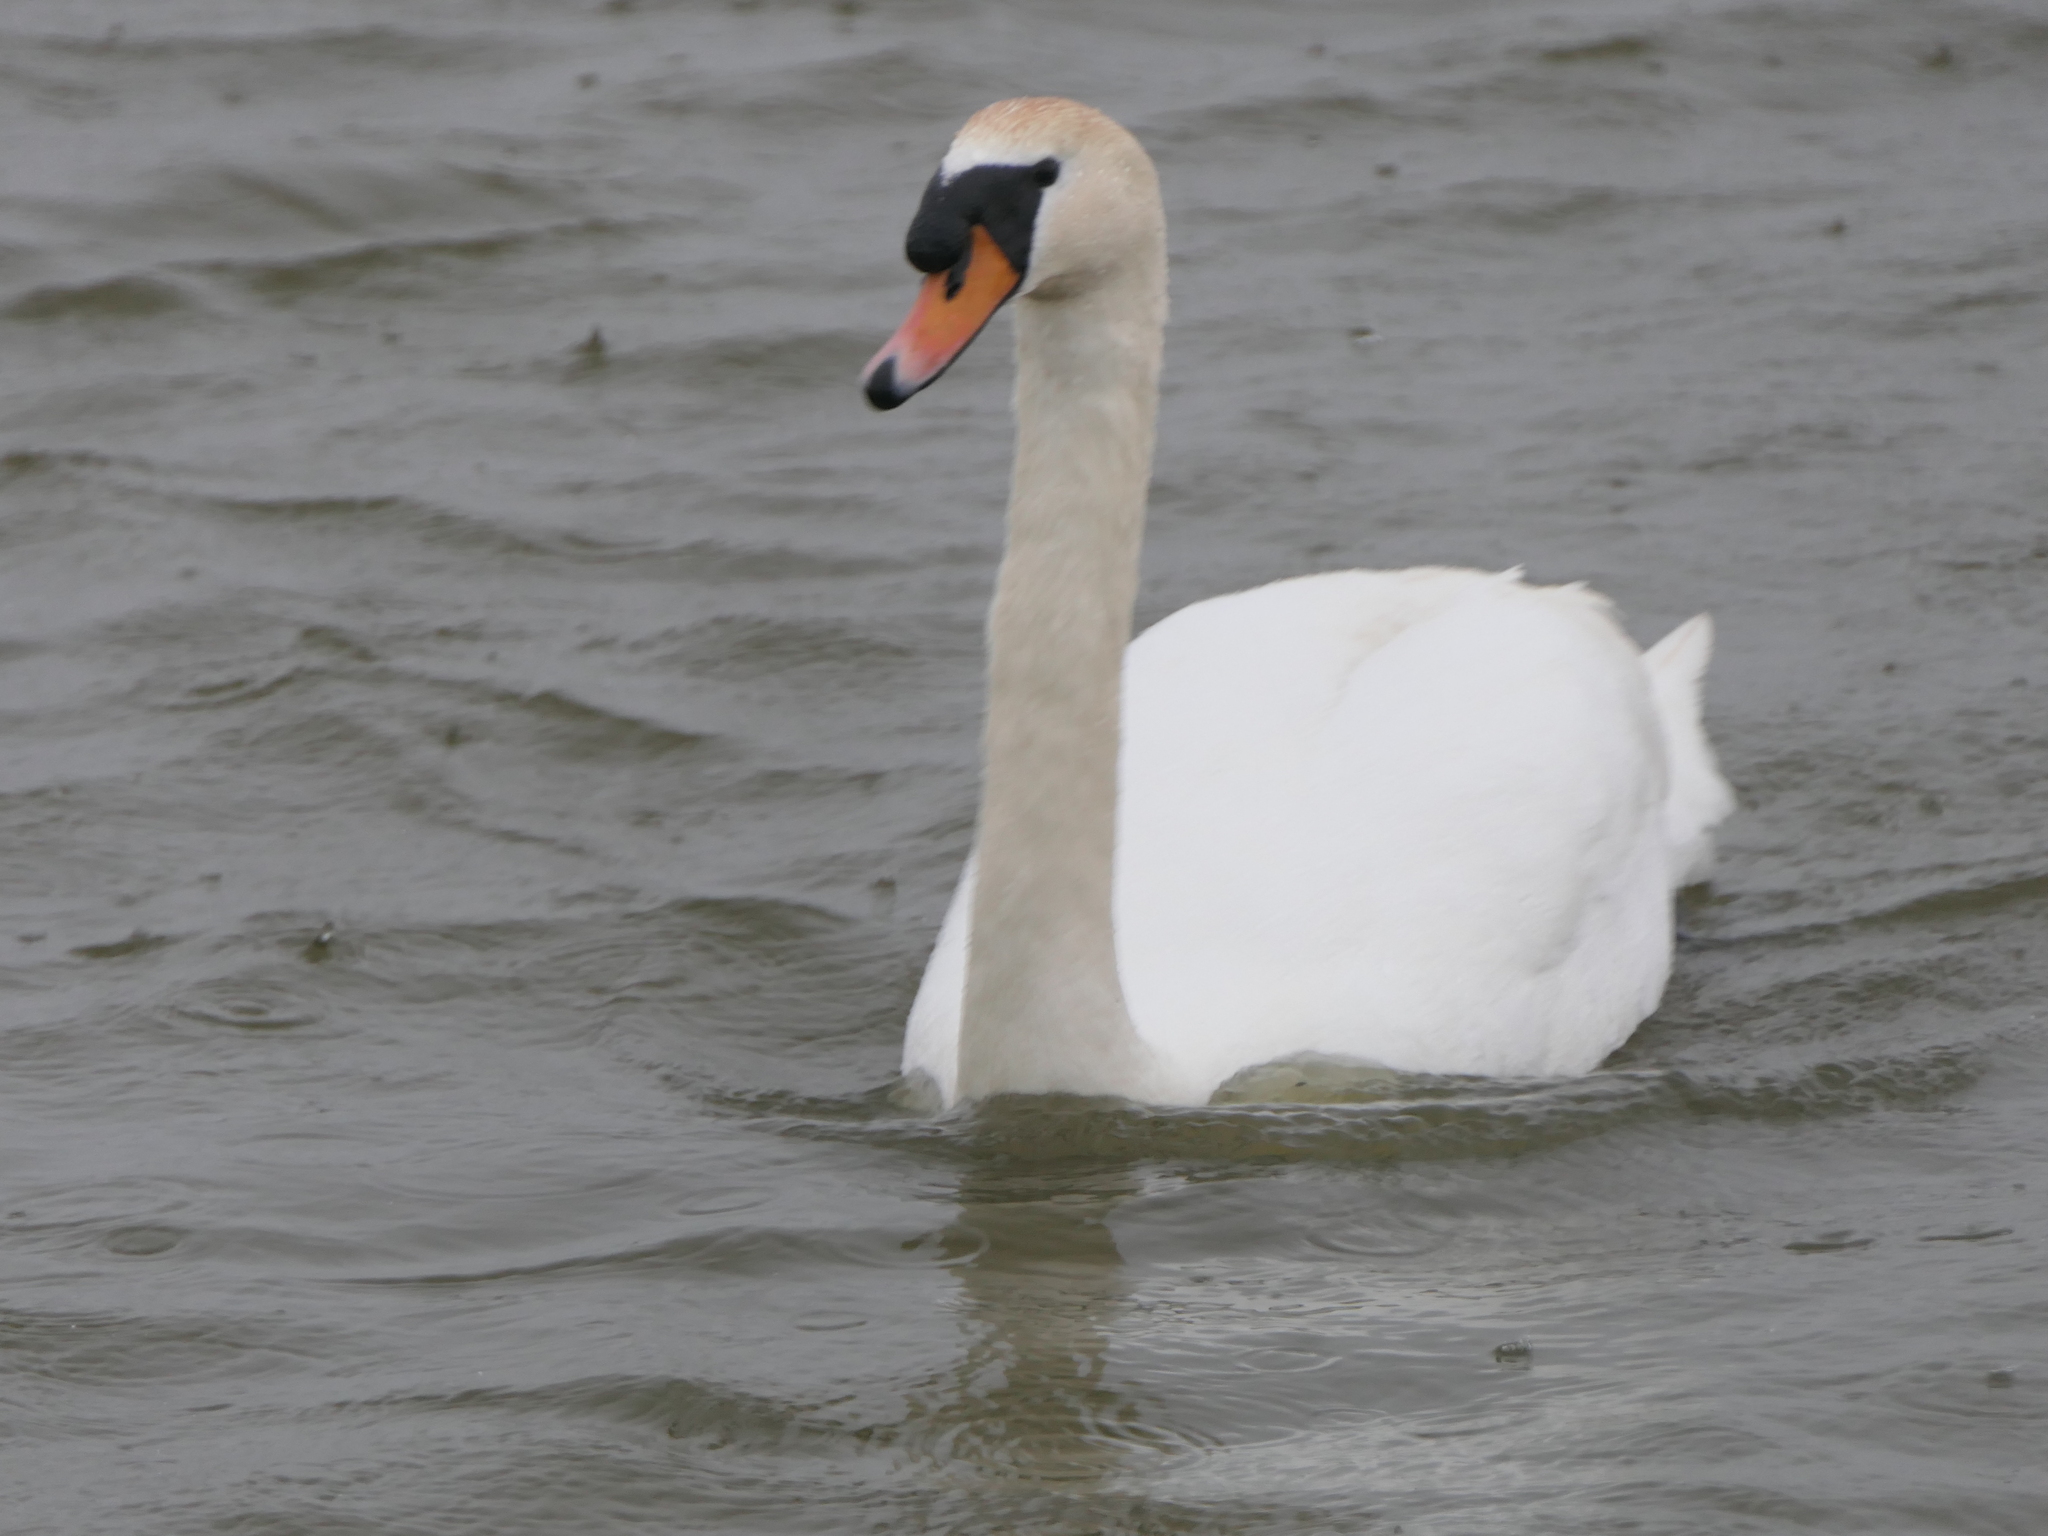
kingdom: Animalia
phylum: Chordata
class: Aves
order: Anseriformes
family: Anatidae
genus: Cygnus
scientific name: Cygnus olor
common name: Mute swan
